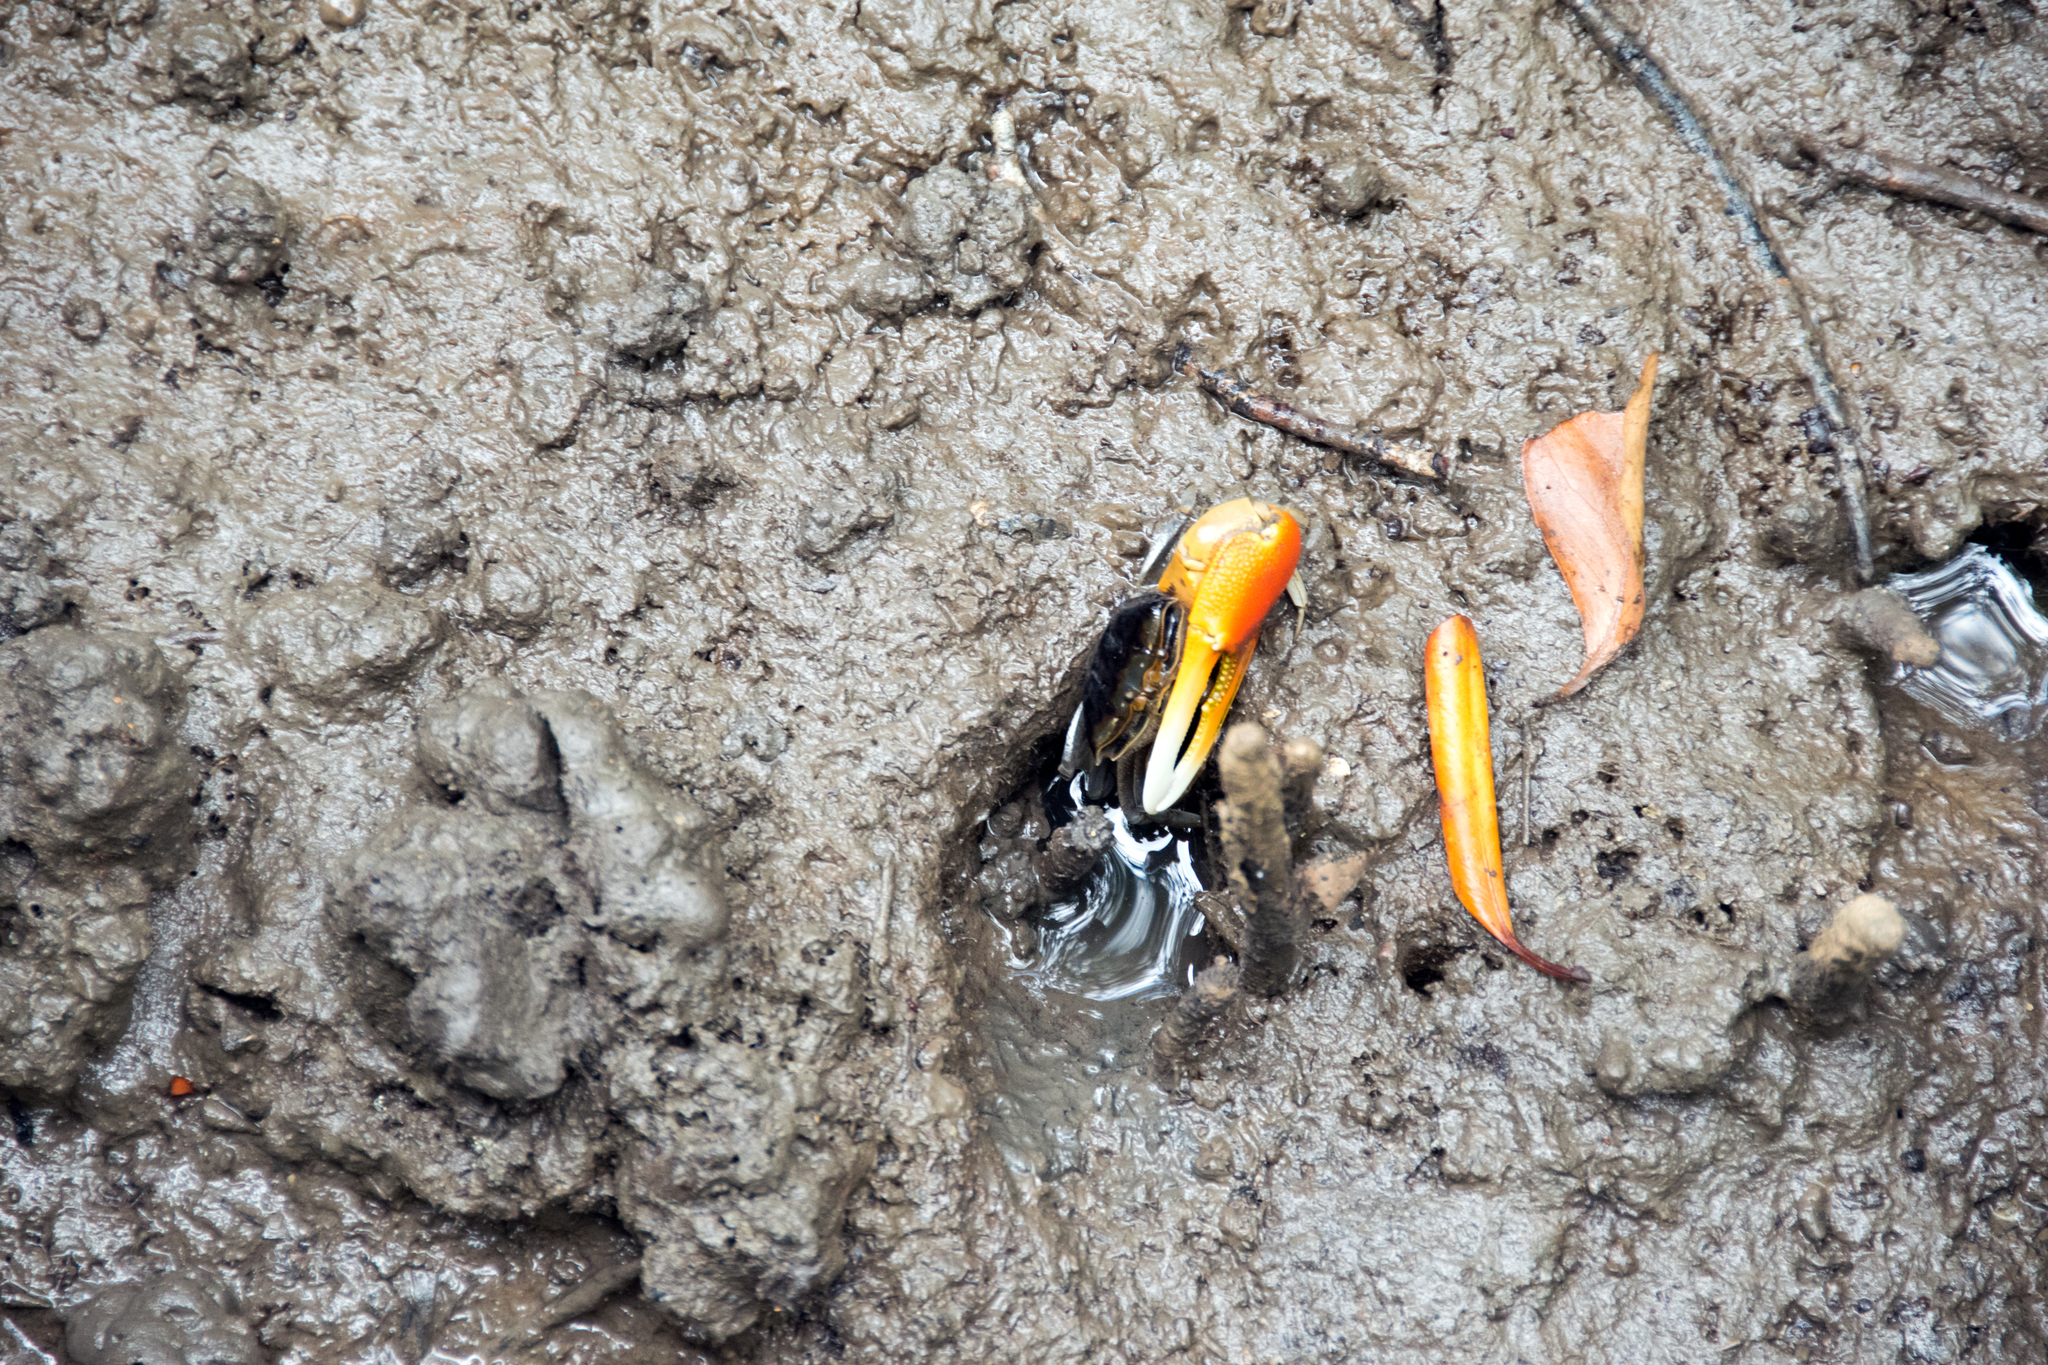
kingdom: Animalia
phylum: Arthropoda
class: Malacostraca
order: Decapoda
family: Ocypodidae
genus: Tubuca
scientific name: Tubuca coarctata
